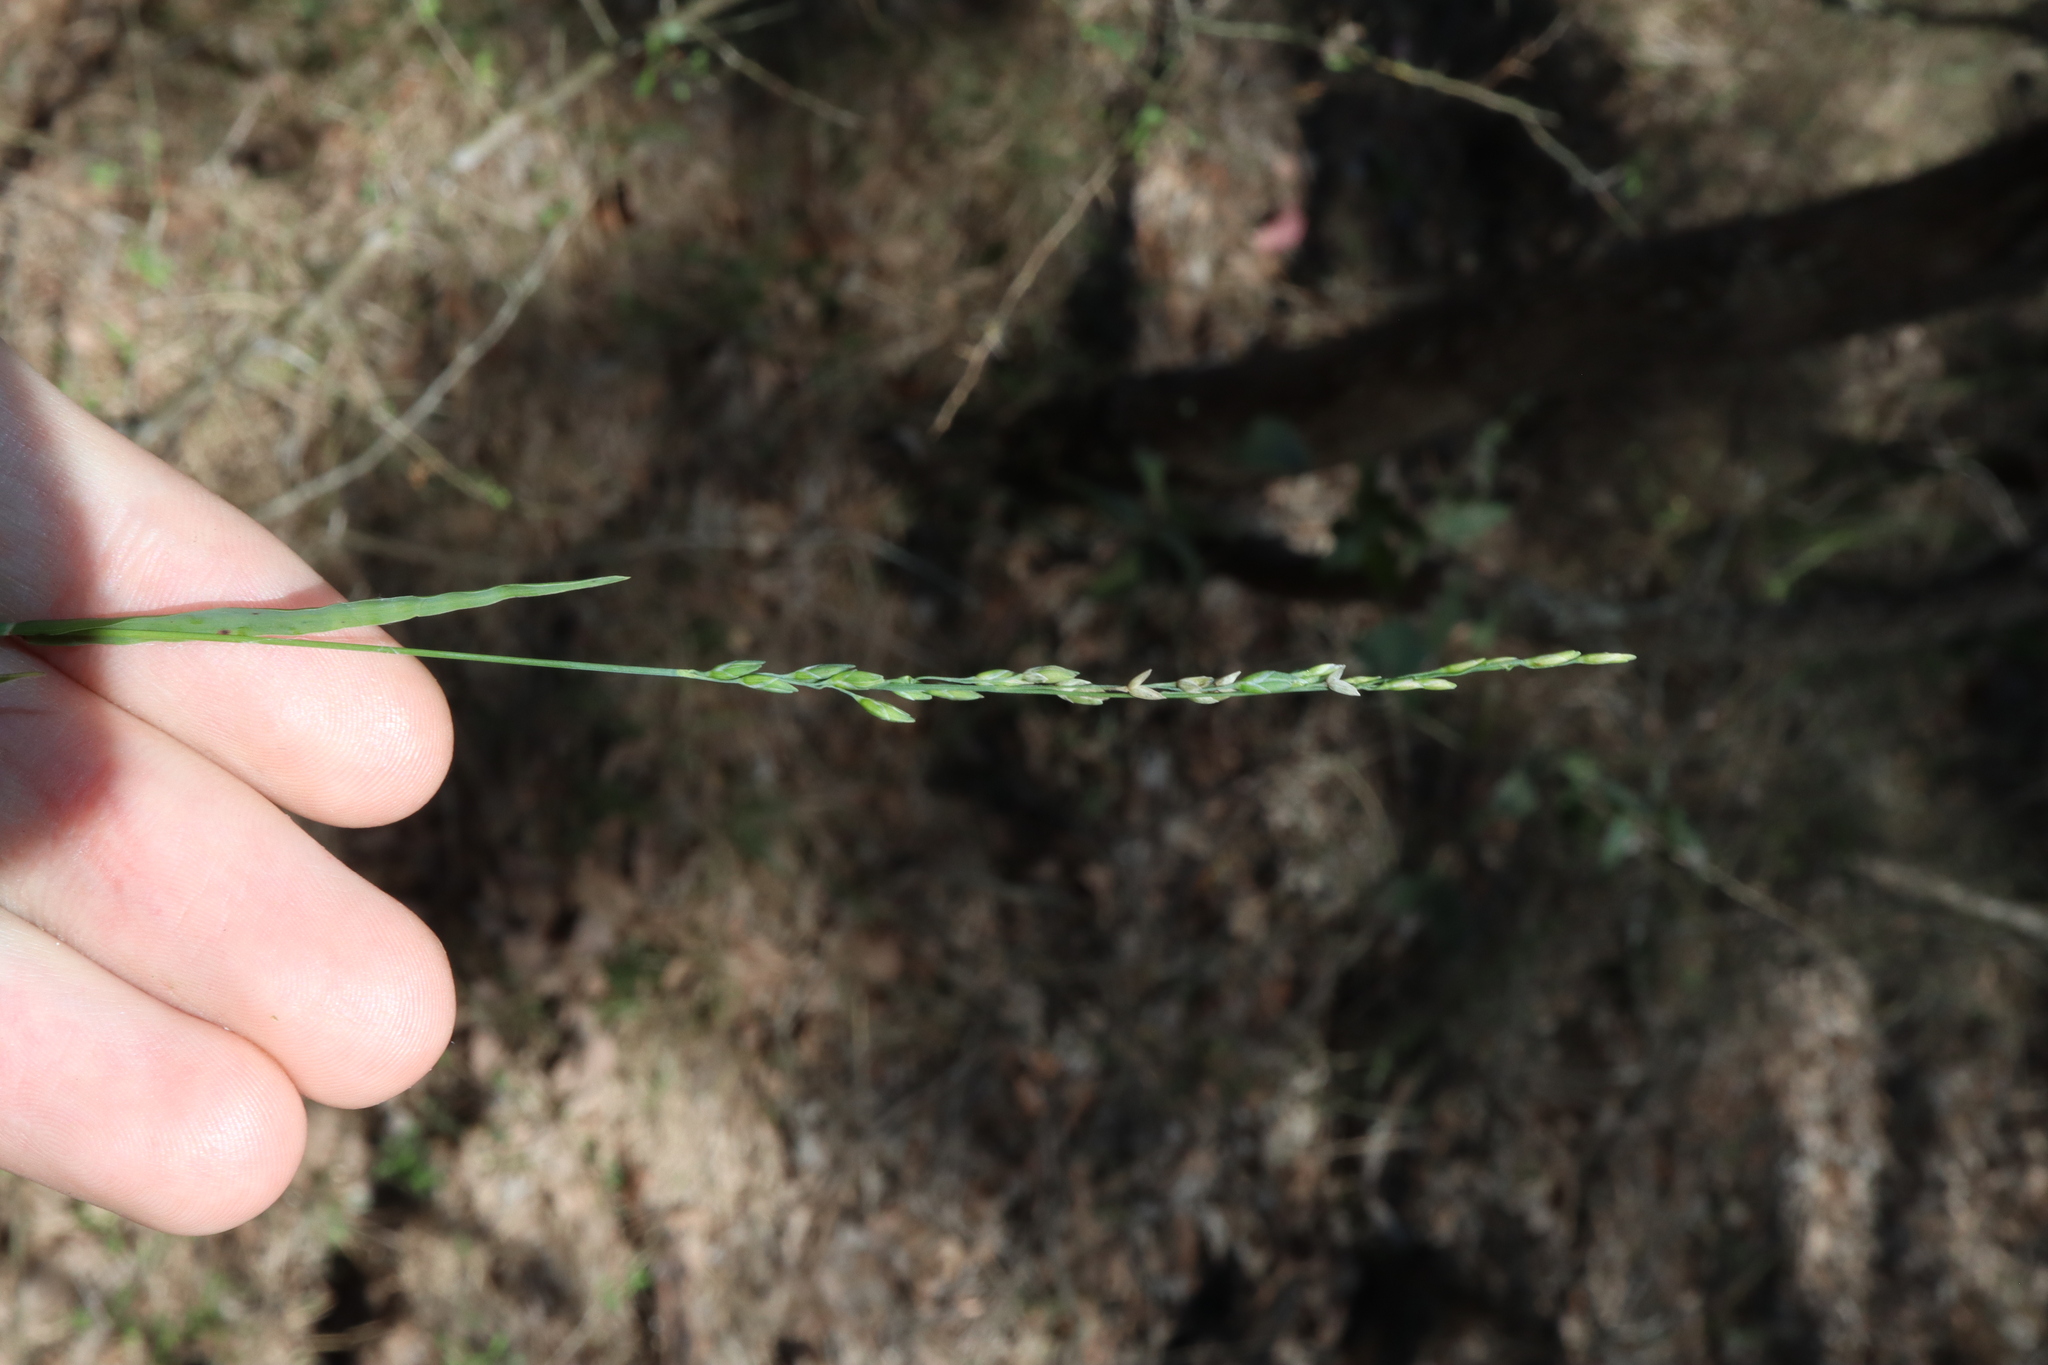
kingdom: Plantae
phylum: Tracheophyta
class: Liliopsida
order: Poales
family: Poaceae
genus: Ehrharta
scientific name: Ehrharta erecta
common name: Panic veldtgrass
